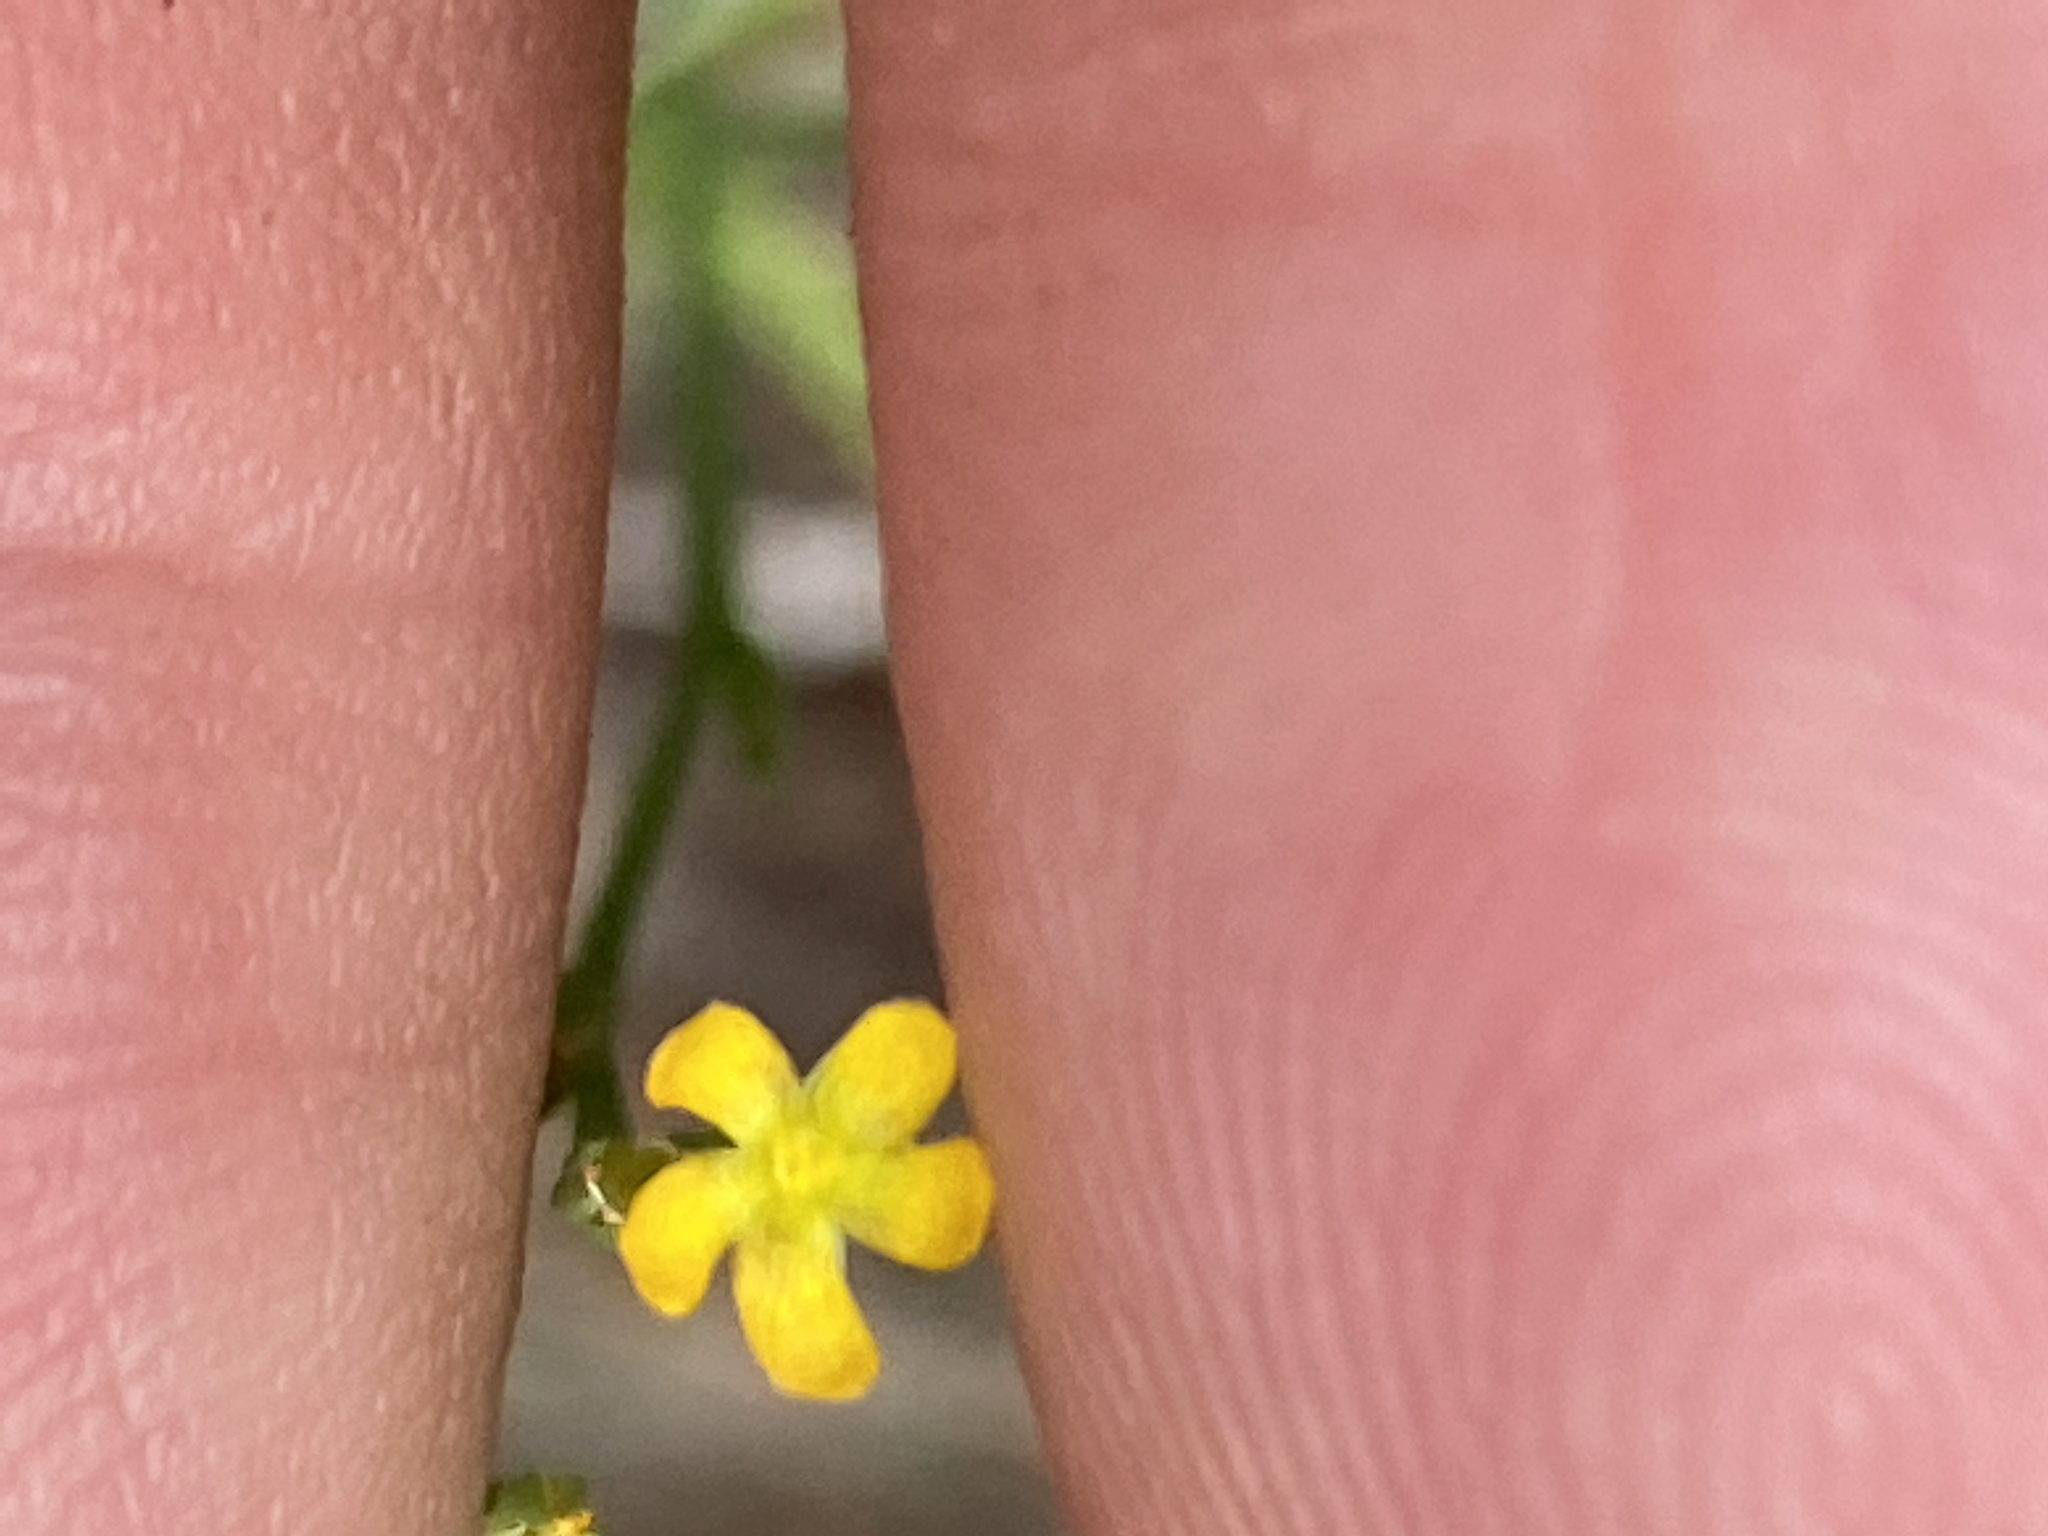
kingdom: Plantae
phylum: Tracheophyta
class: Magnoliopsida
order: Malpighiales
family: Hypericaceae
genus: Hypericum
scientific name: Hypericum gentianoides
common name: Gentian-leaved st. john's-wort
